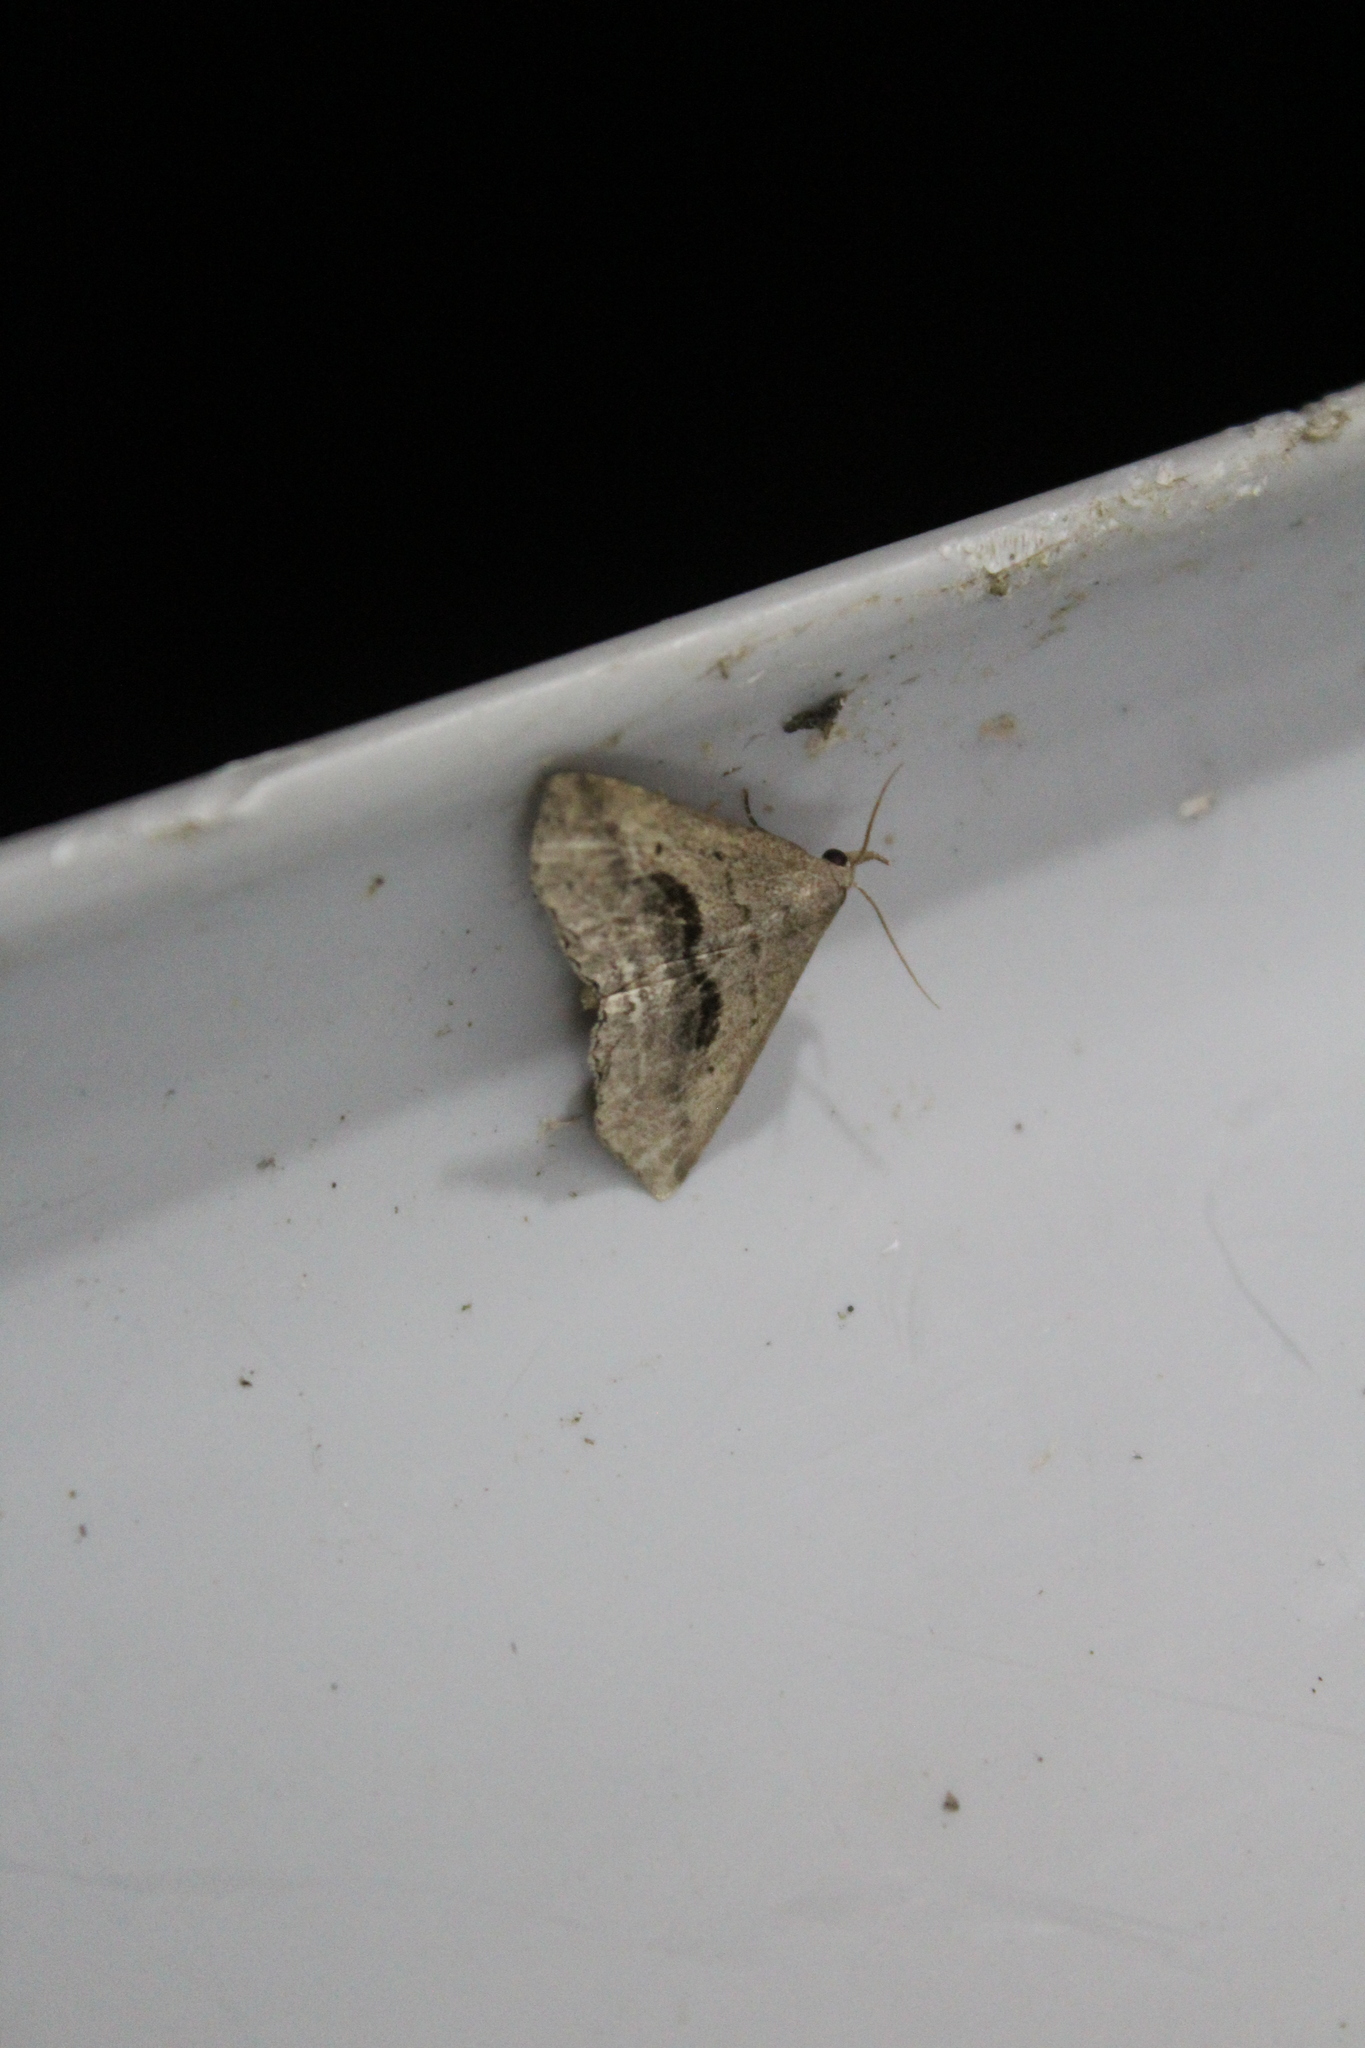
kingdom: Animalia
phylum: Arthropoda
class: Insecta
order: Lepidoptera
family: Erebidae
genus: Spargaloma
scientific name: Spargaloma perditalis
